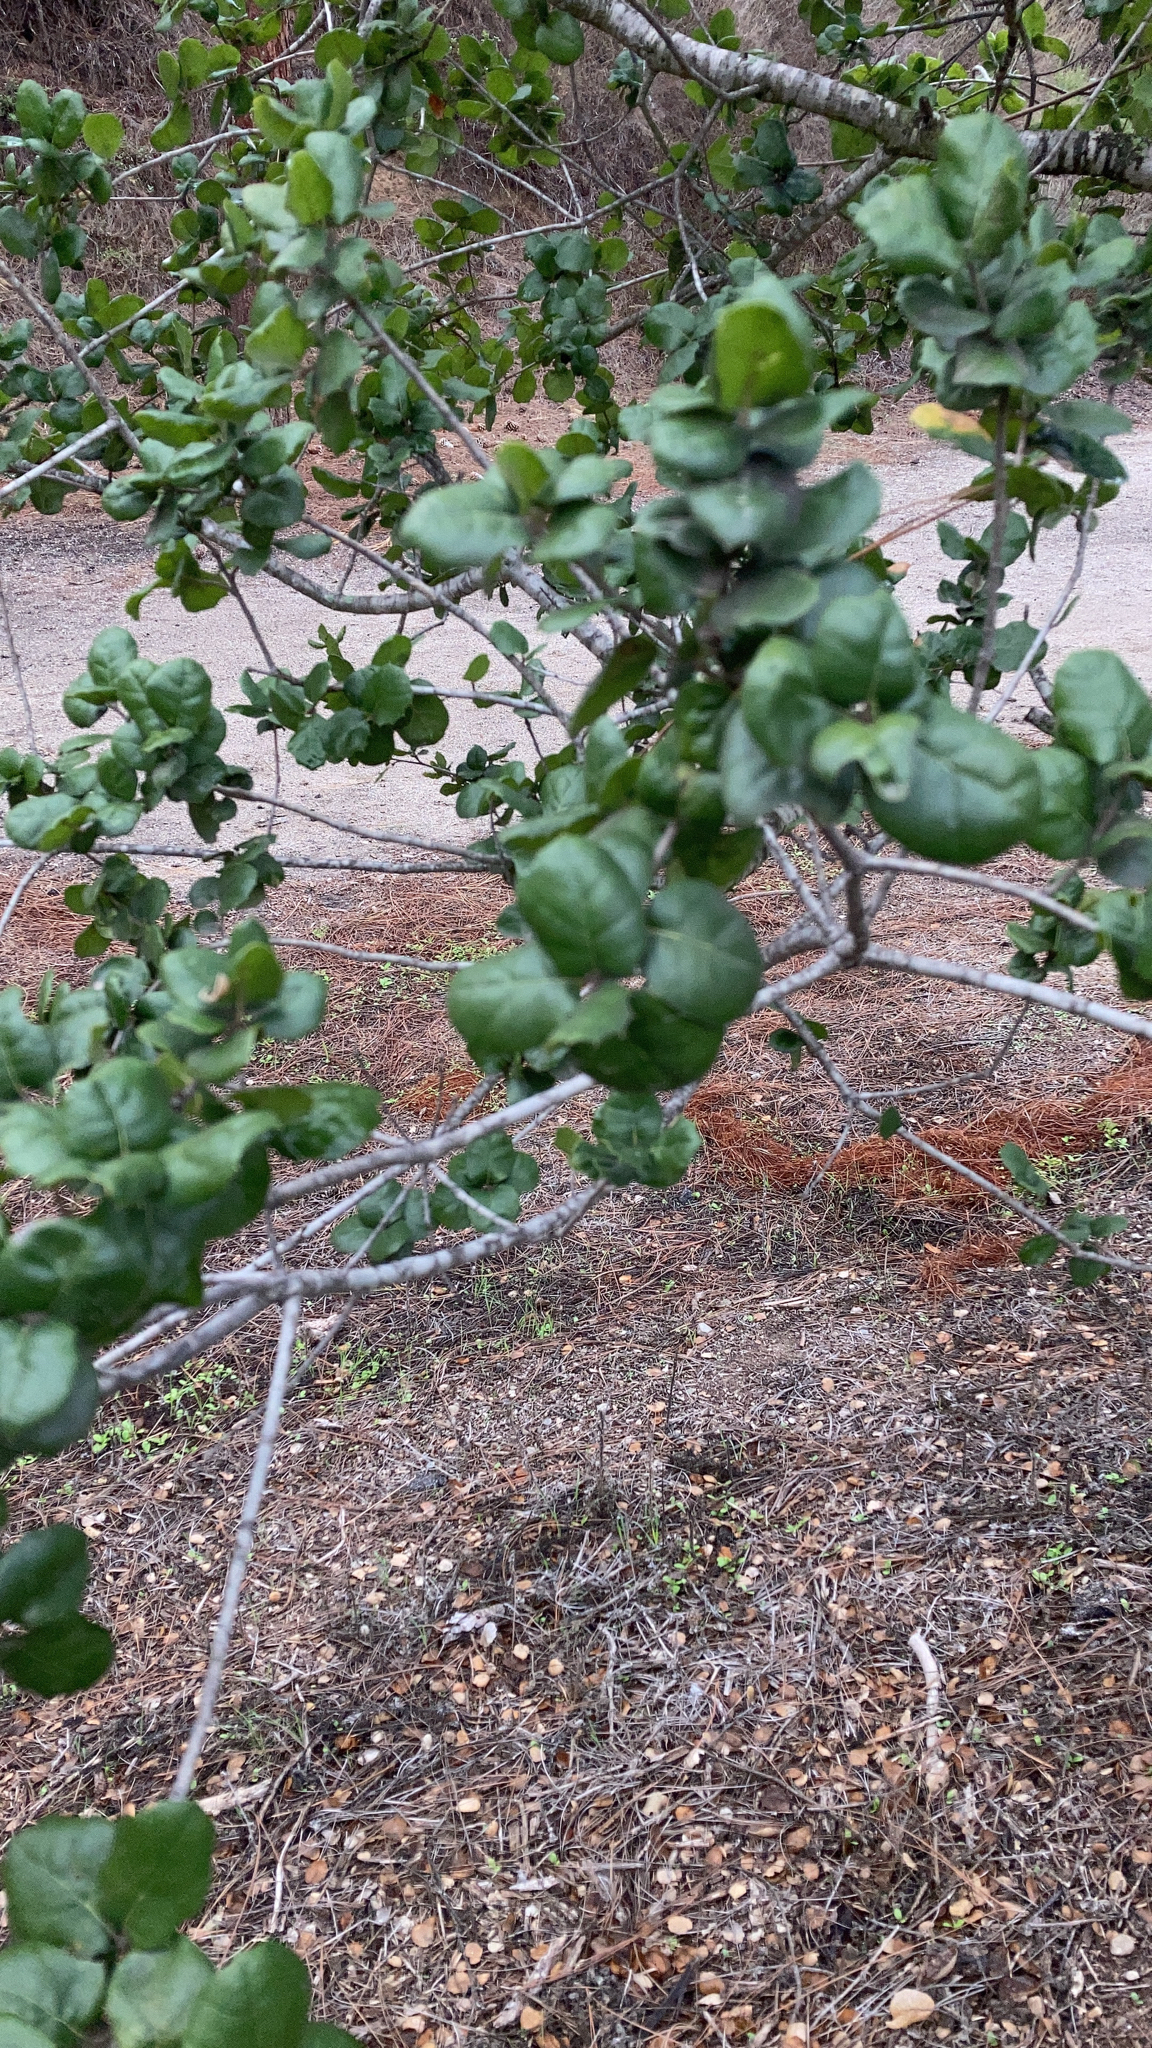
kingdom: Plantae
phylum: Tracheophyta
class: Magnoliopsida
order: Fagales
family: Fagaceae
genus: Quercus
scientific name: Quercus agrifolia
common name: California live oak
